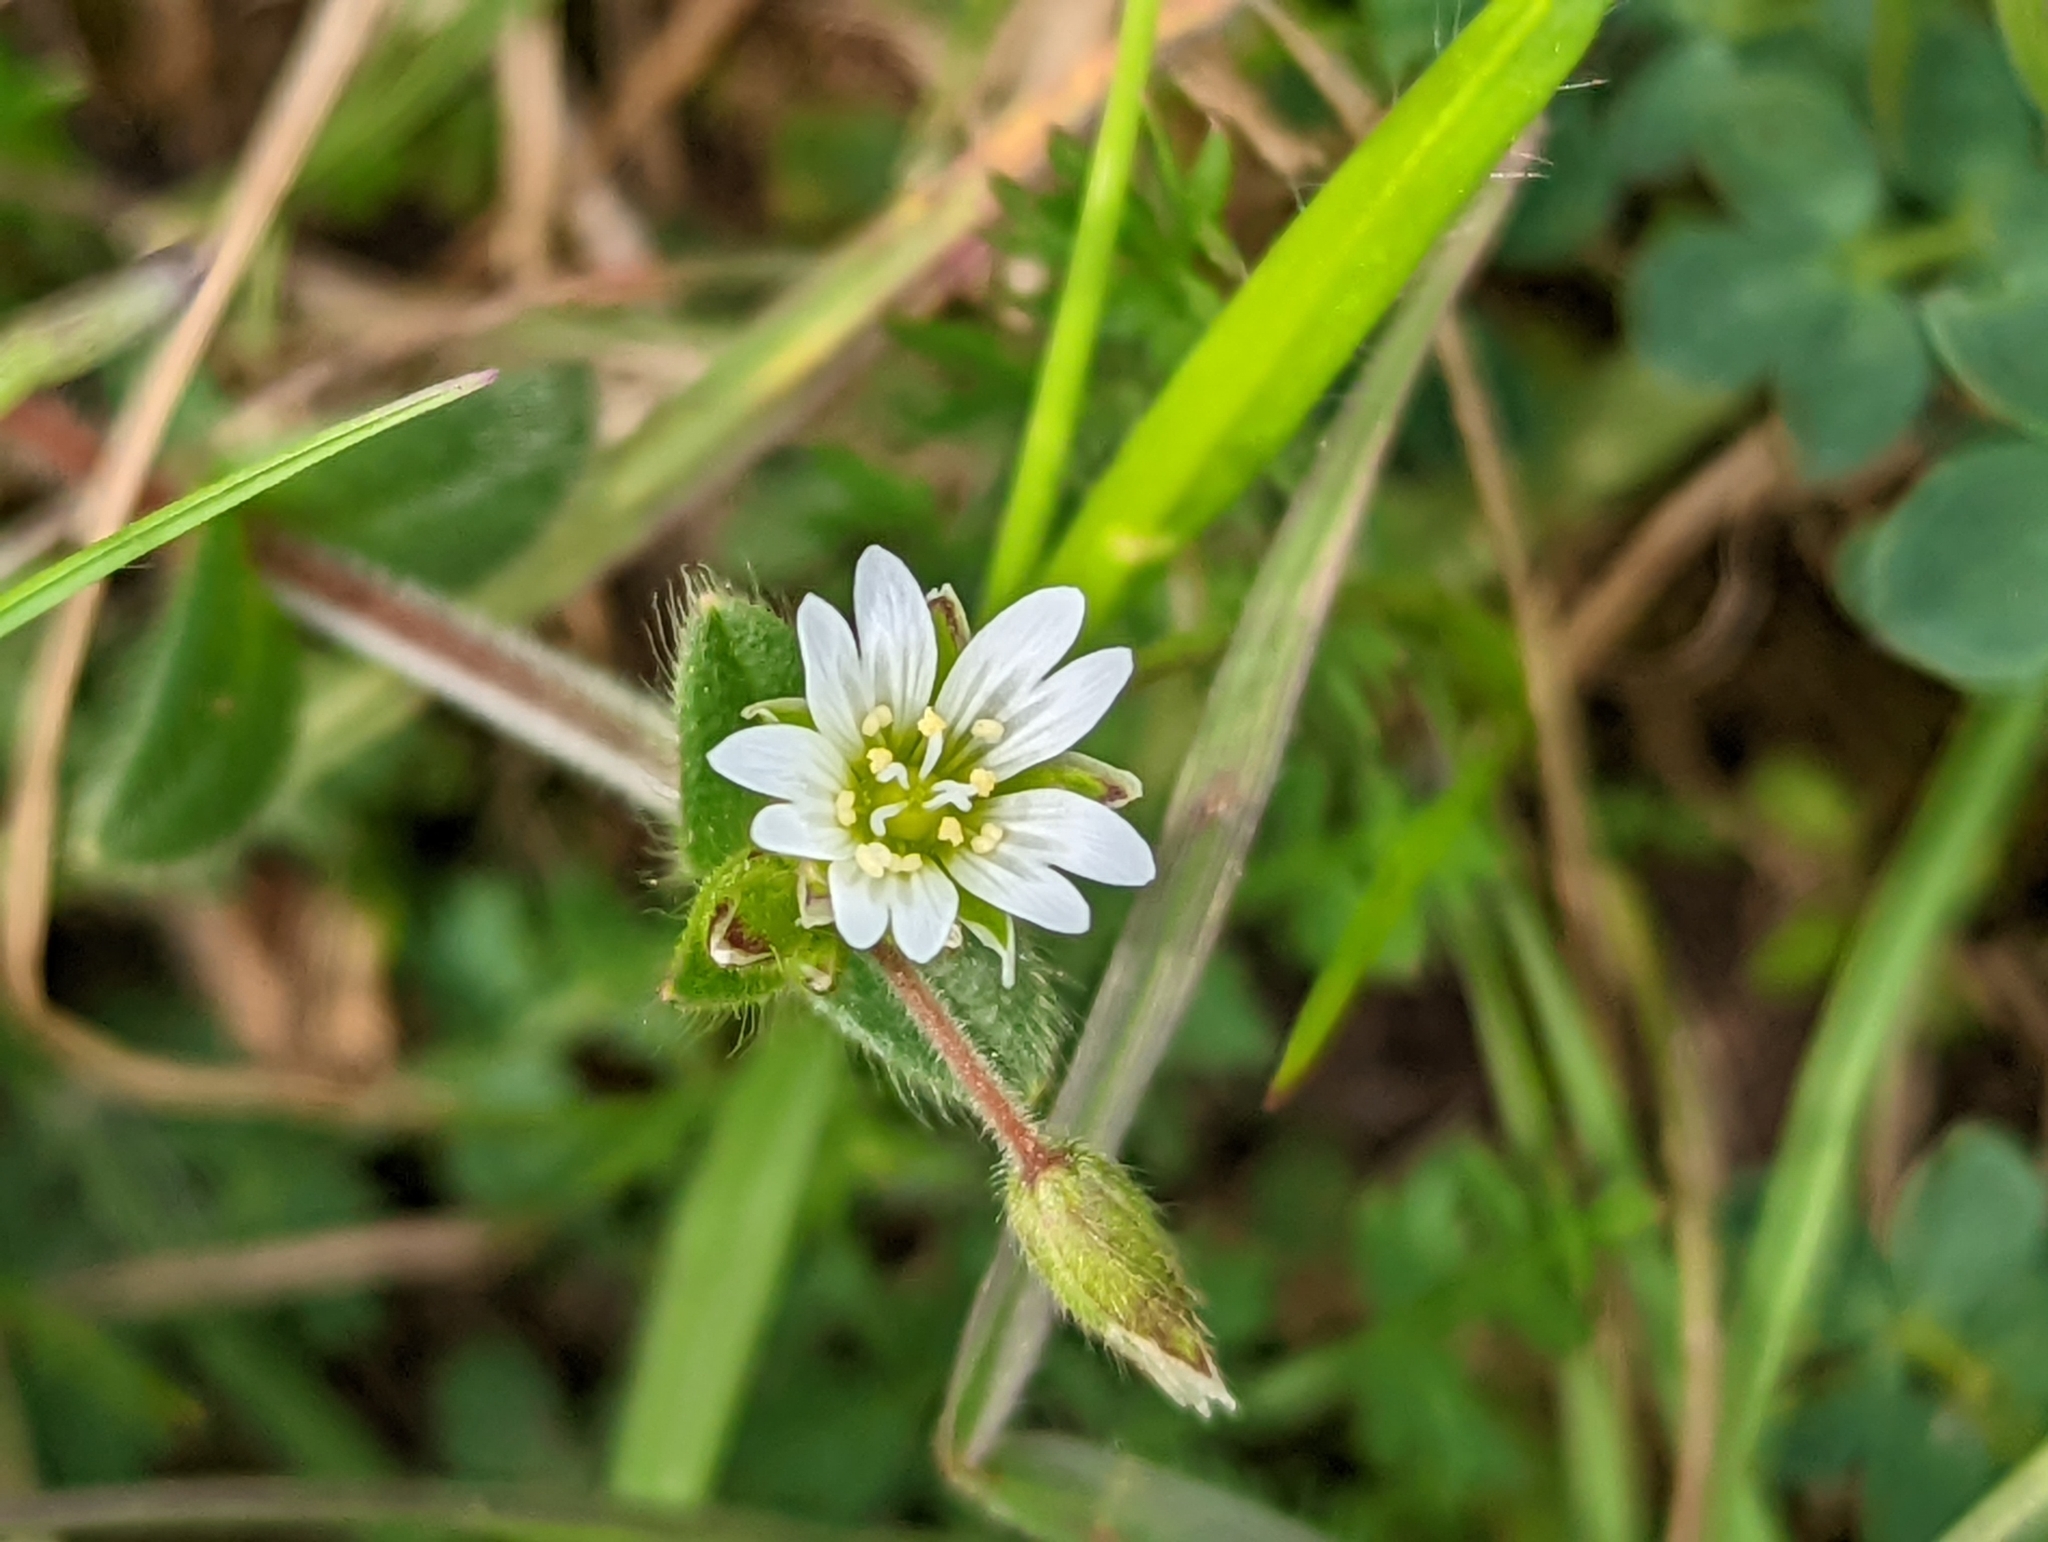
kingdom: Plantae
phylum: Tracheophyta
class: Magnoliopsida
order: Caryophyllales
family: Caryophyllaceae
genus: Cerastium
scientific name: Cerastium fontanum
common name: Common mouse-ear
